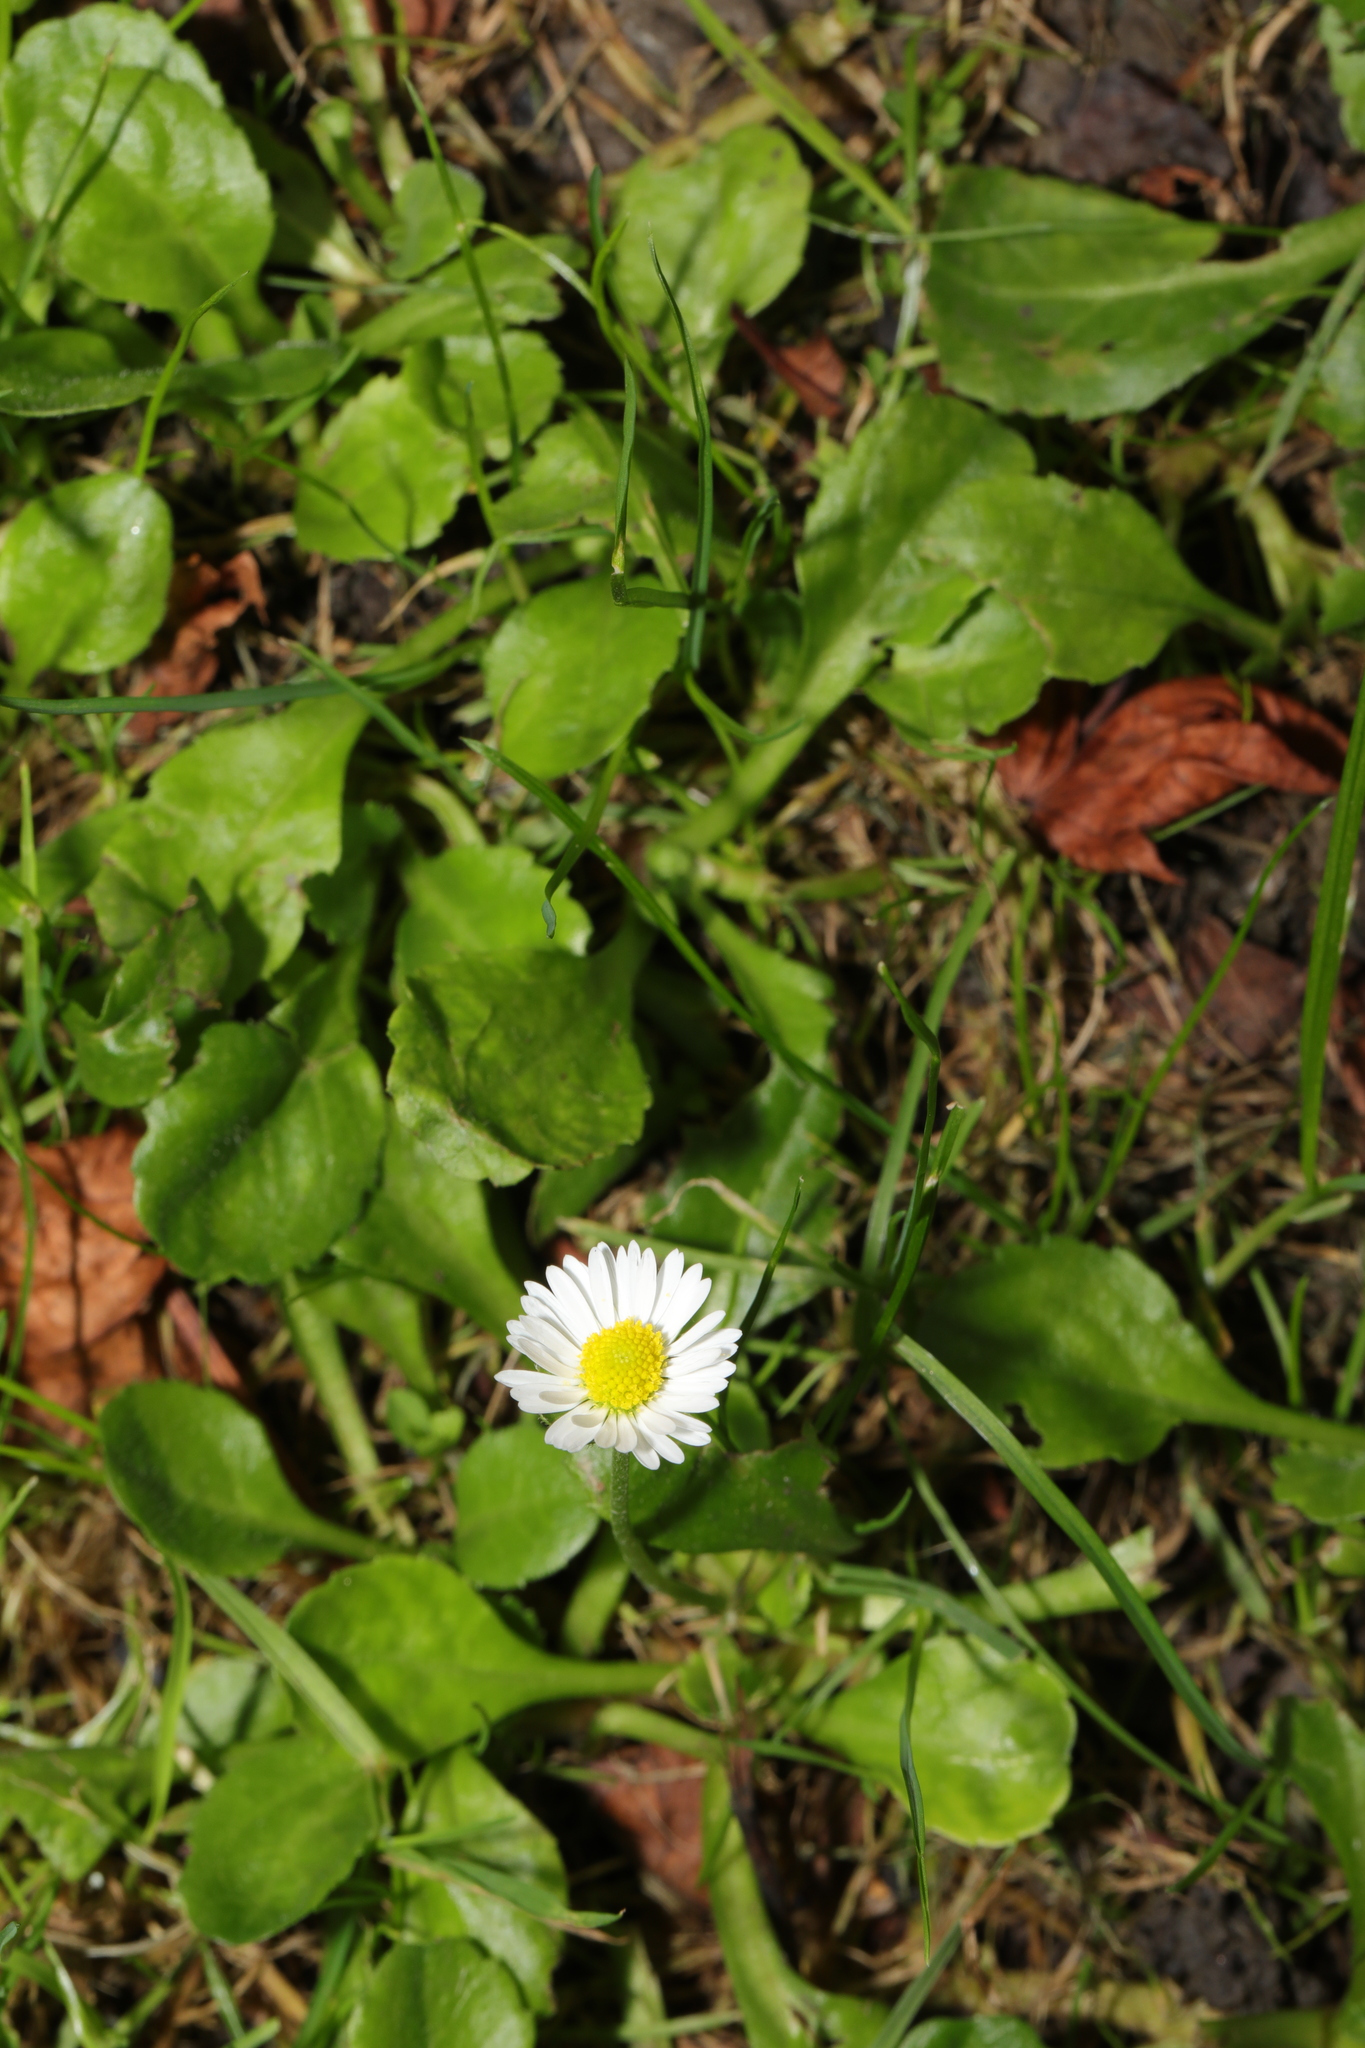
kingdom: Plantae
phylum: Tracheophyta
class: Magnoliopsida
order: Asterales
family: Asteraceae
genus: Bellis
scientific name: Bellis perennis
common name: Lawndaisy
